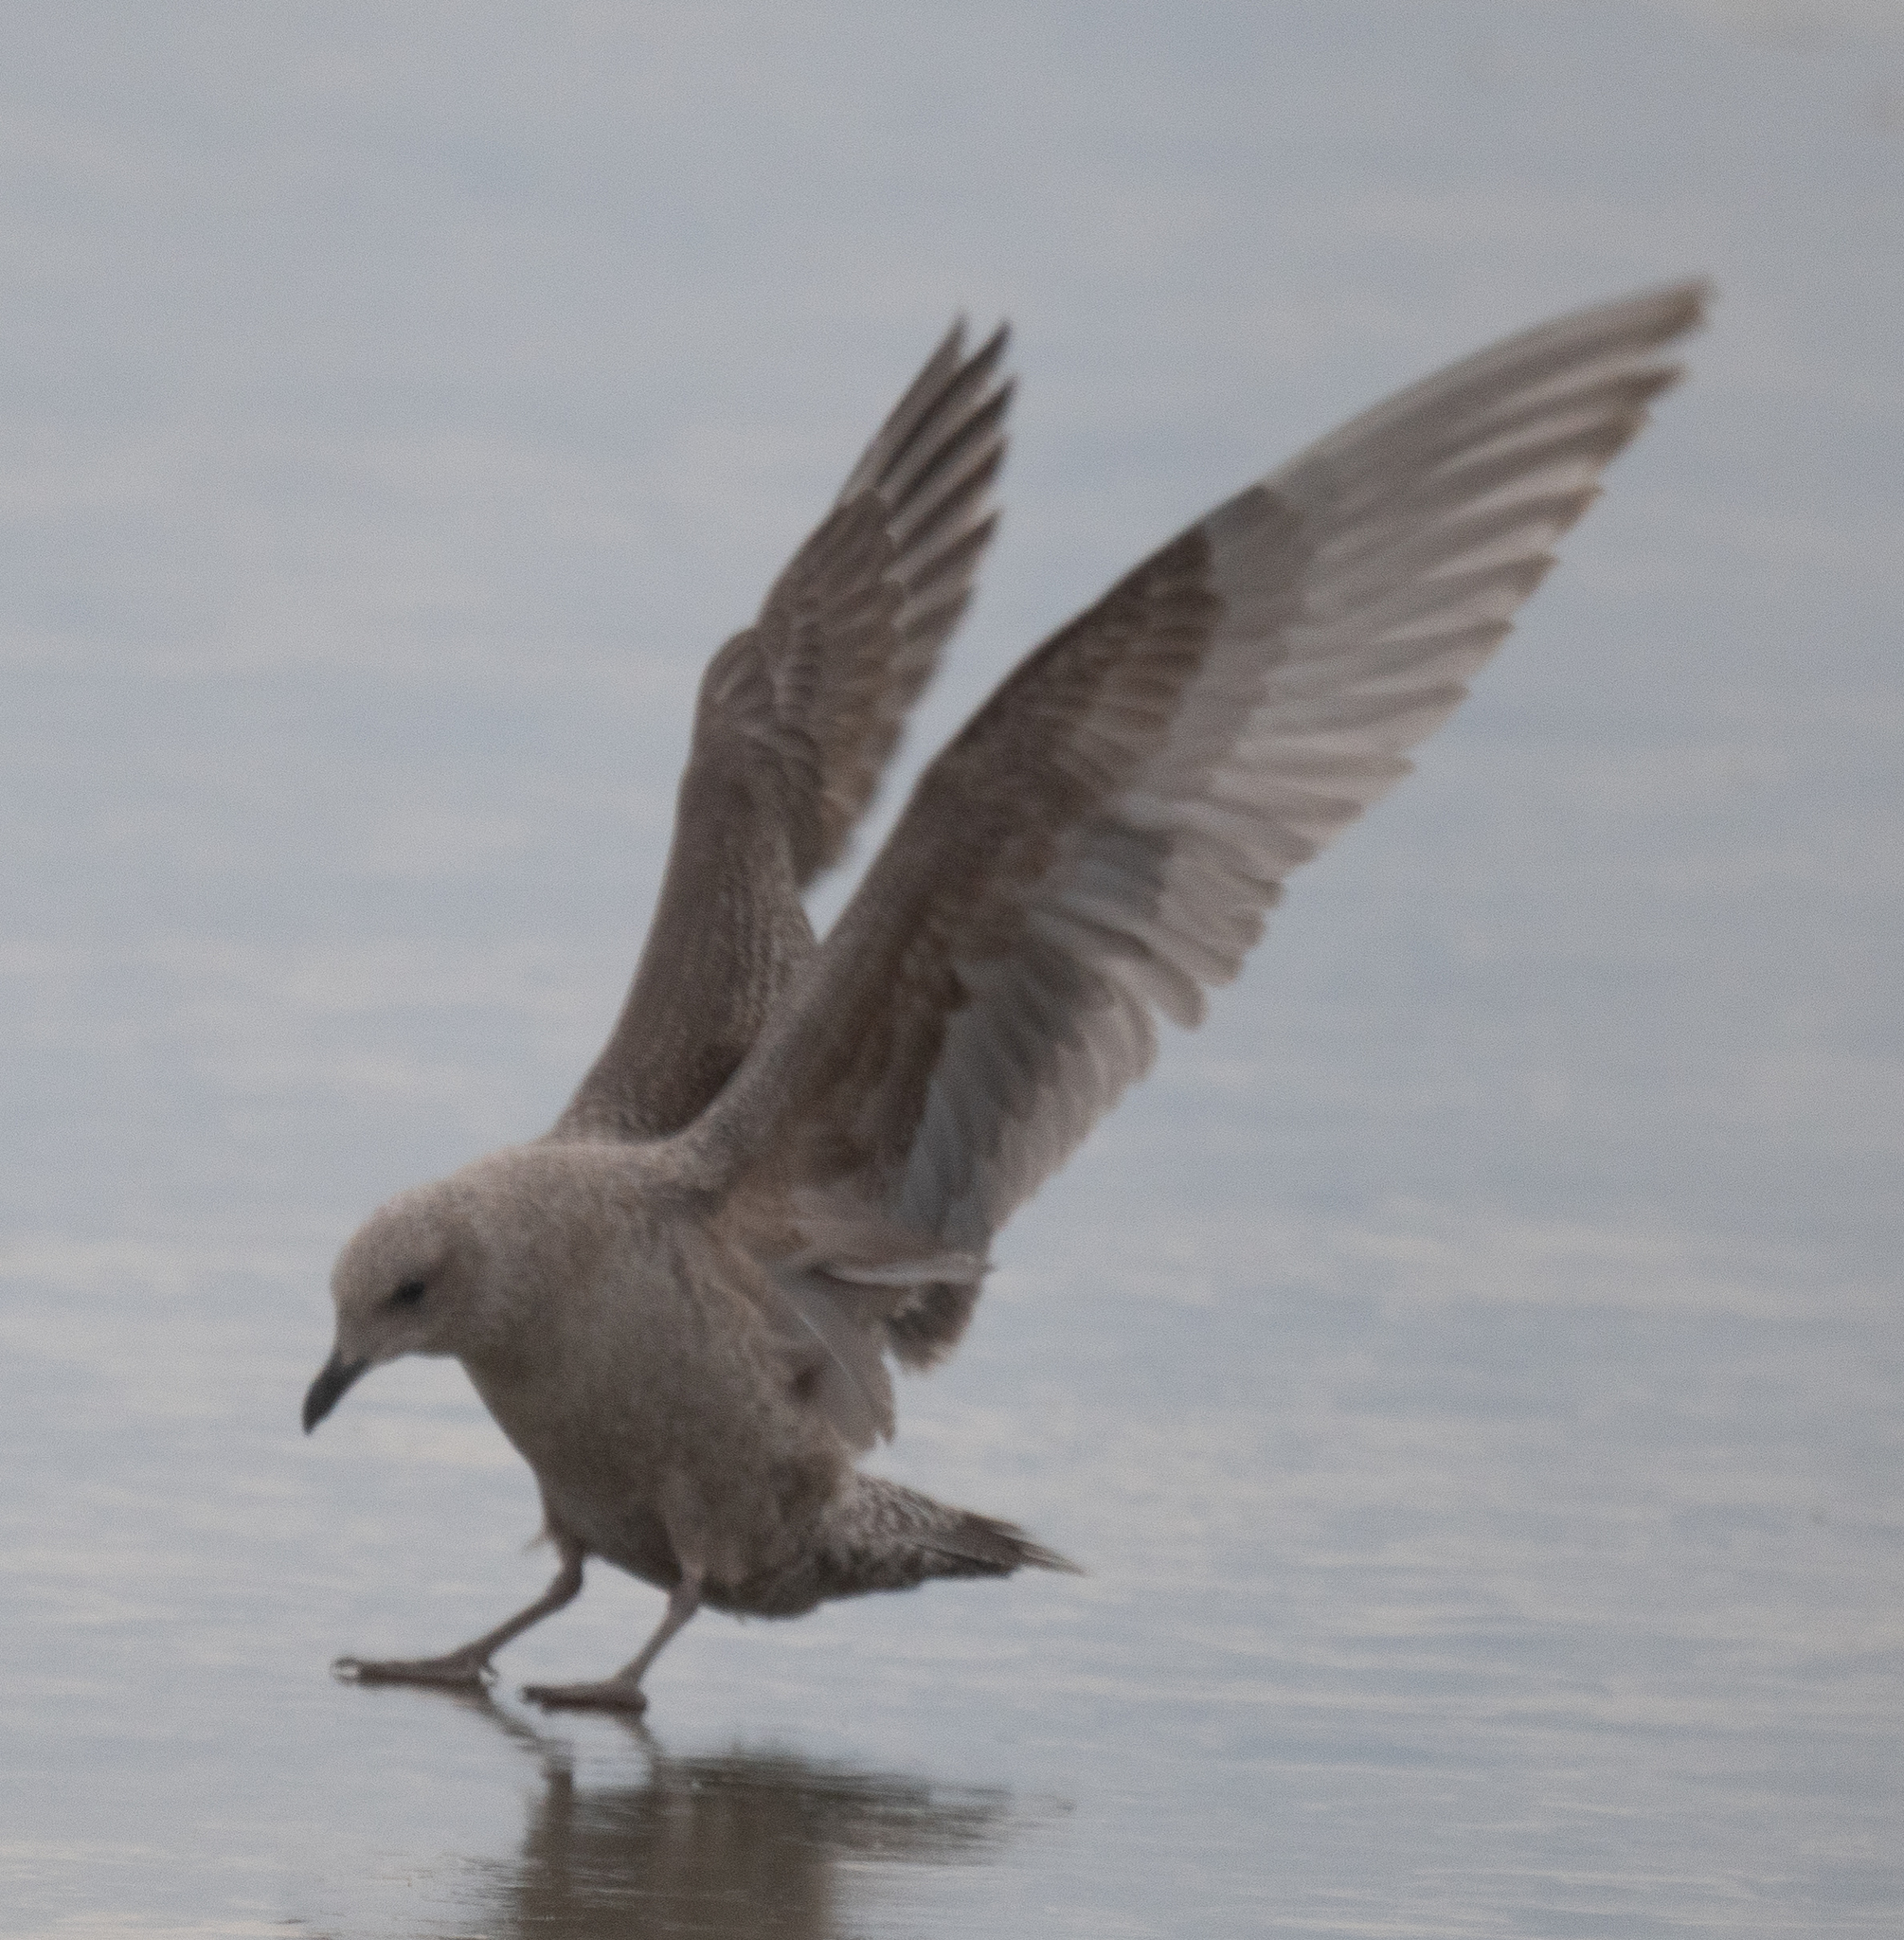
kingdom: Animalia
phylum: Chordata
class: Aves
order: Charadriiformes
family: Laridae
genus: Larus
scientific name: Larus glaucoides
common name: Iceland gull
